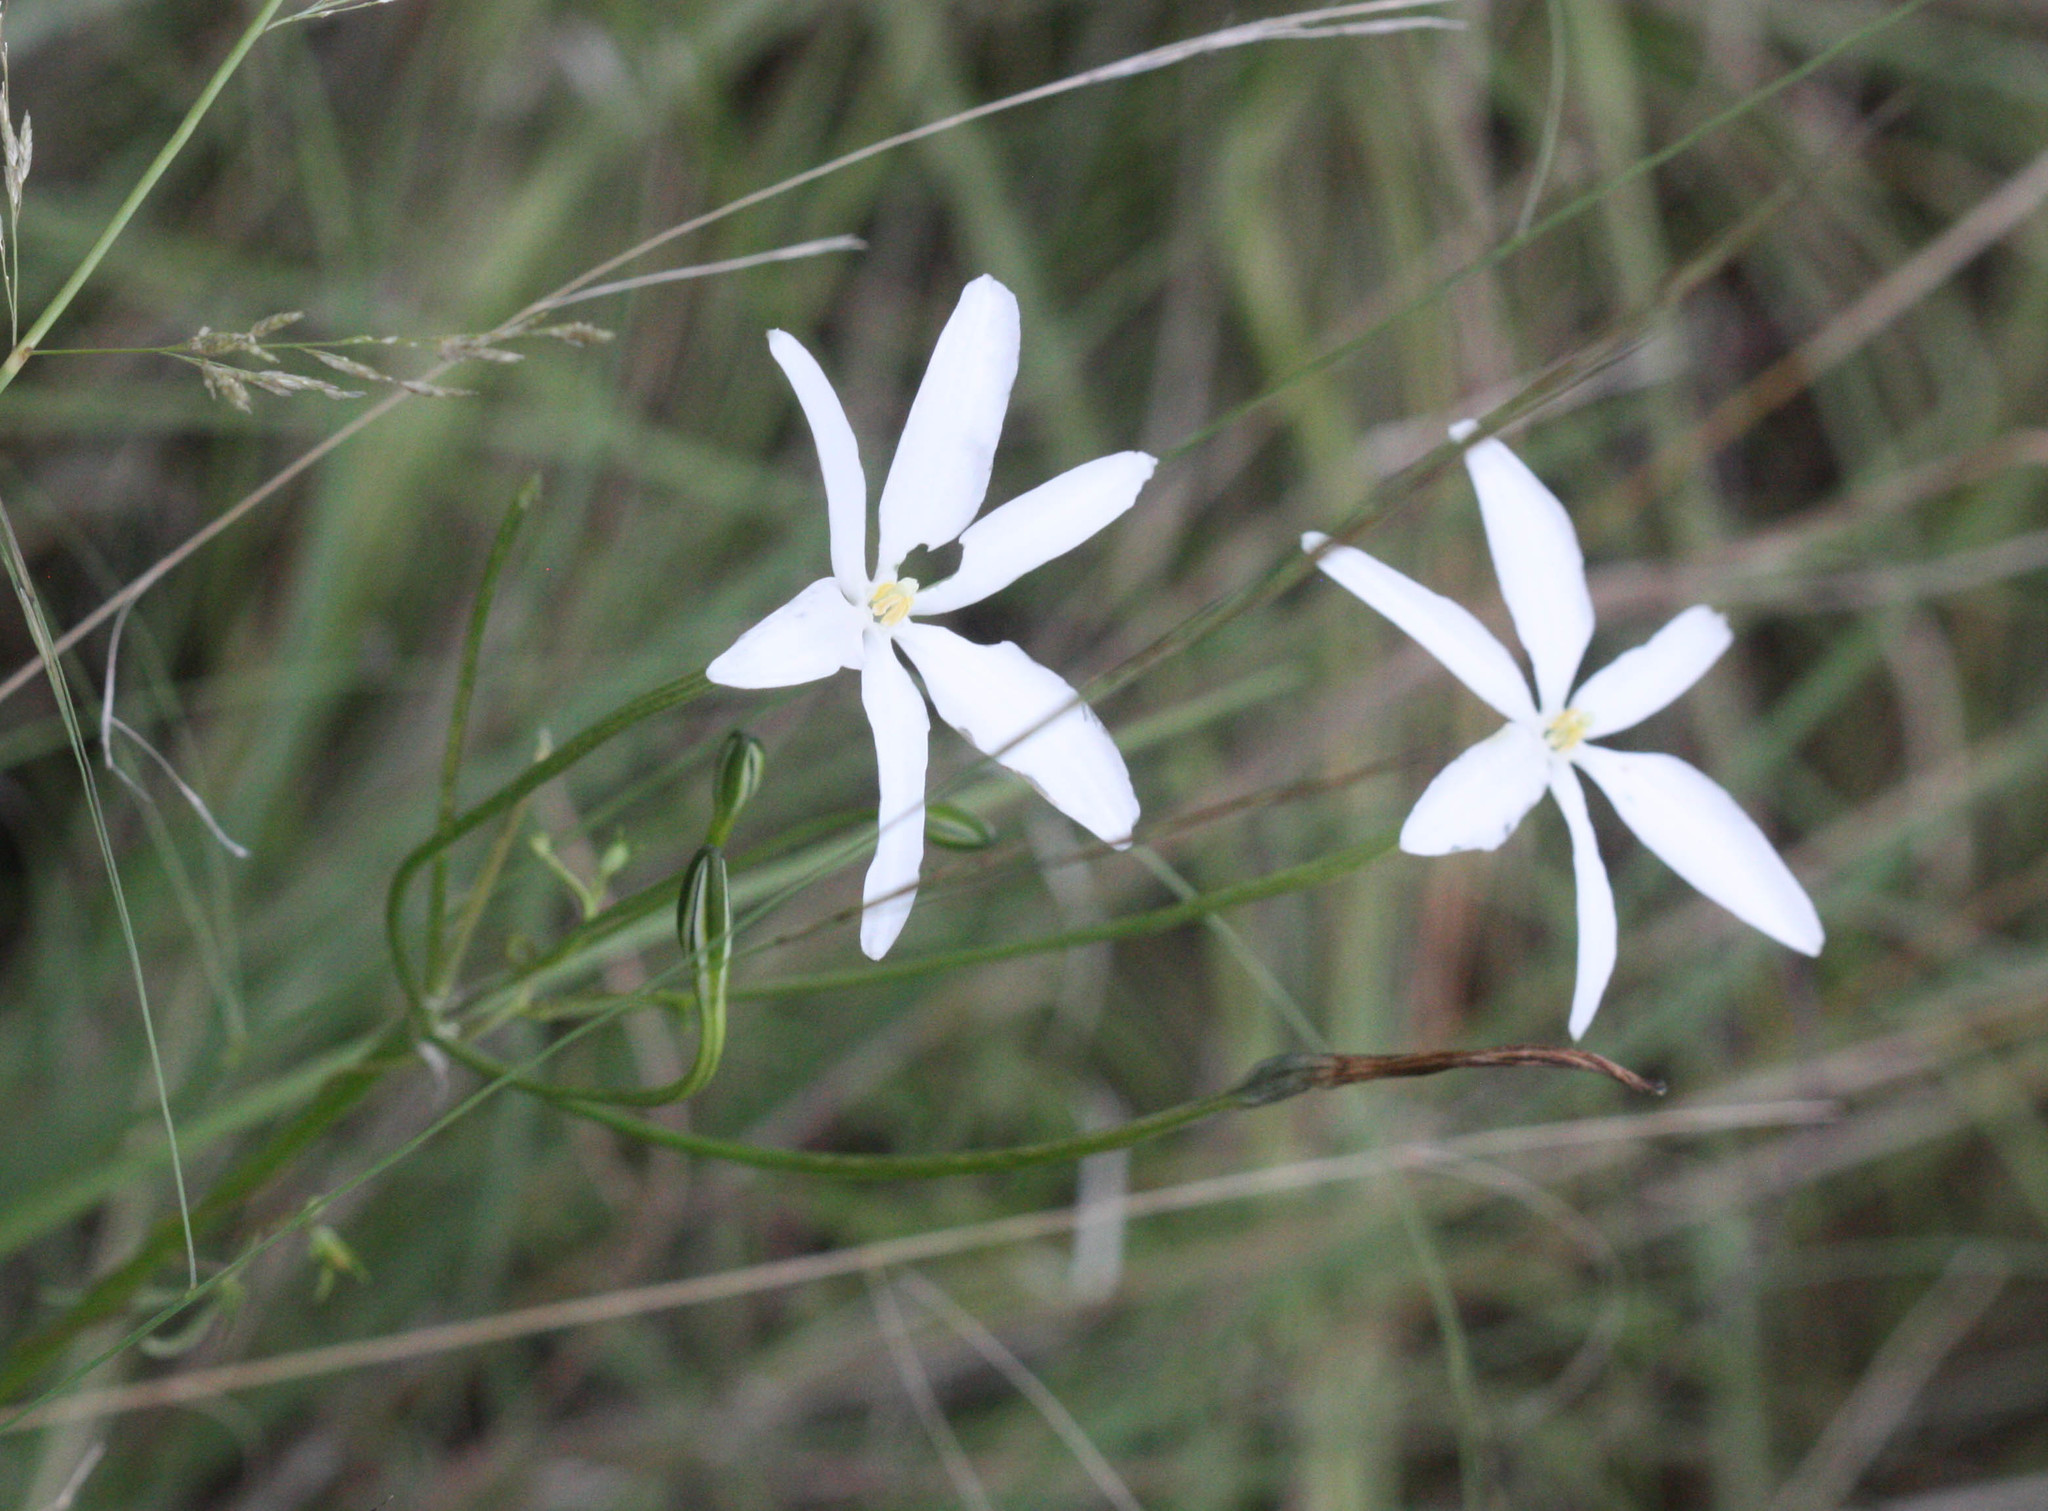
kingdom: Plantae
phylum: Tracheophyta
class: Liliopsida
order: Asparagales
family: Asparagaceae
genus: Milla
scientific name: Milla biflora
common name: Mexican-star
